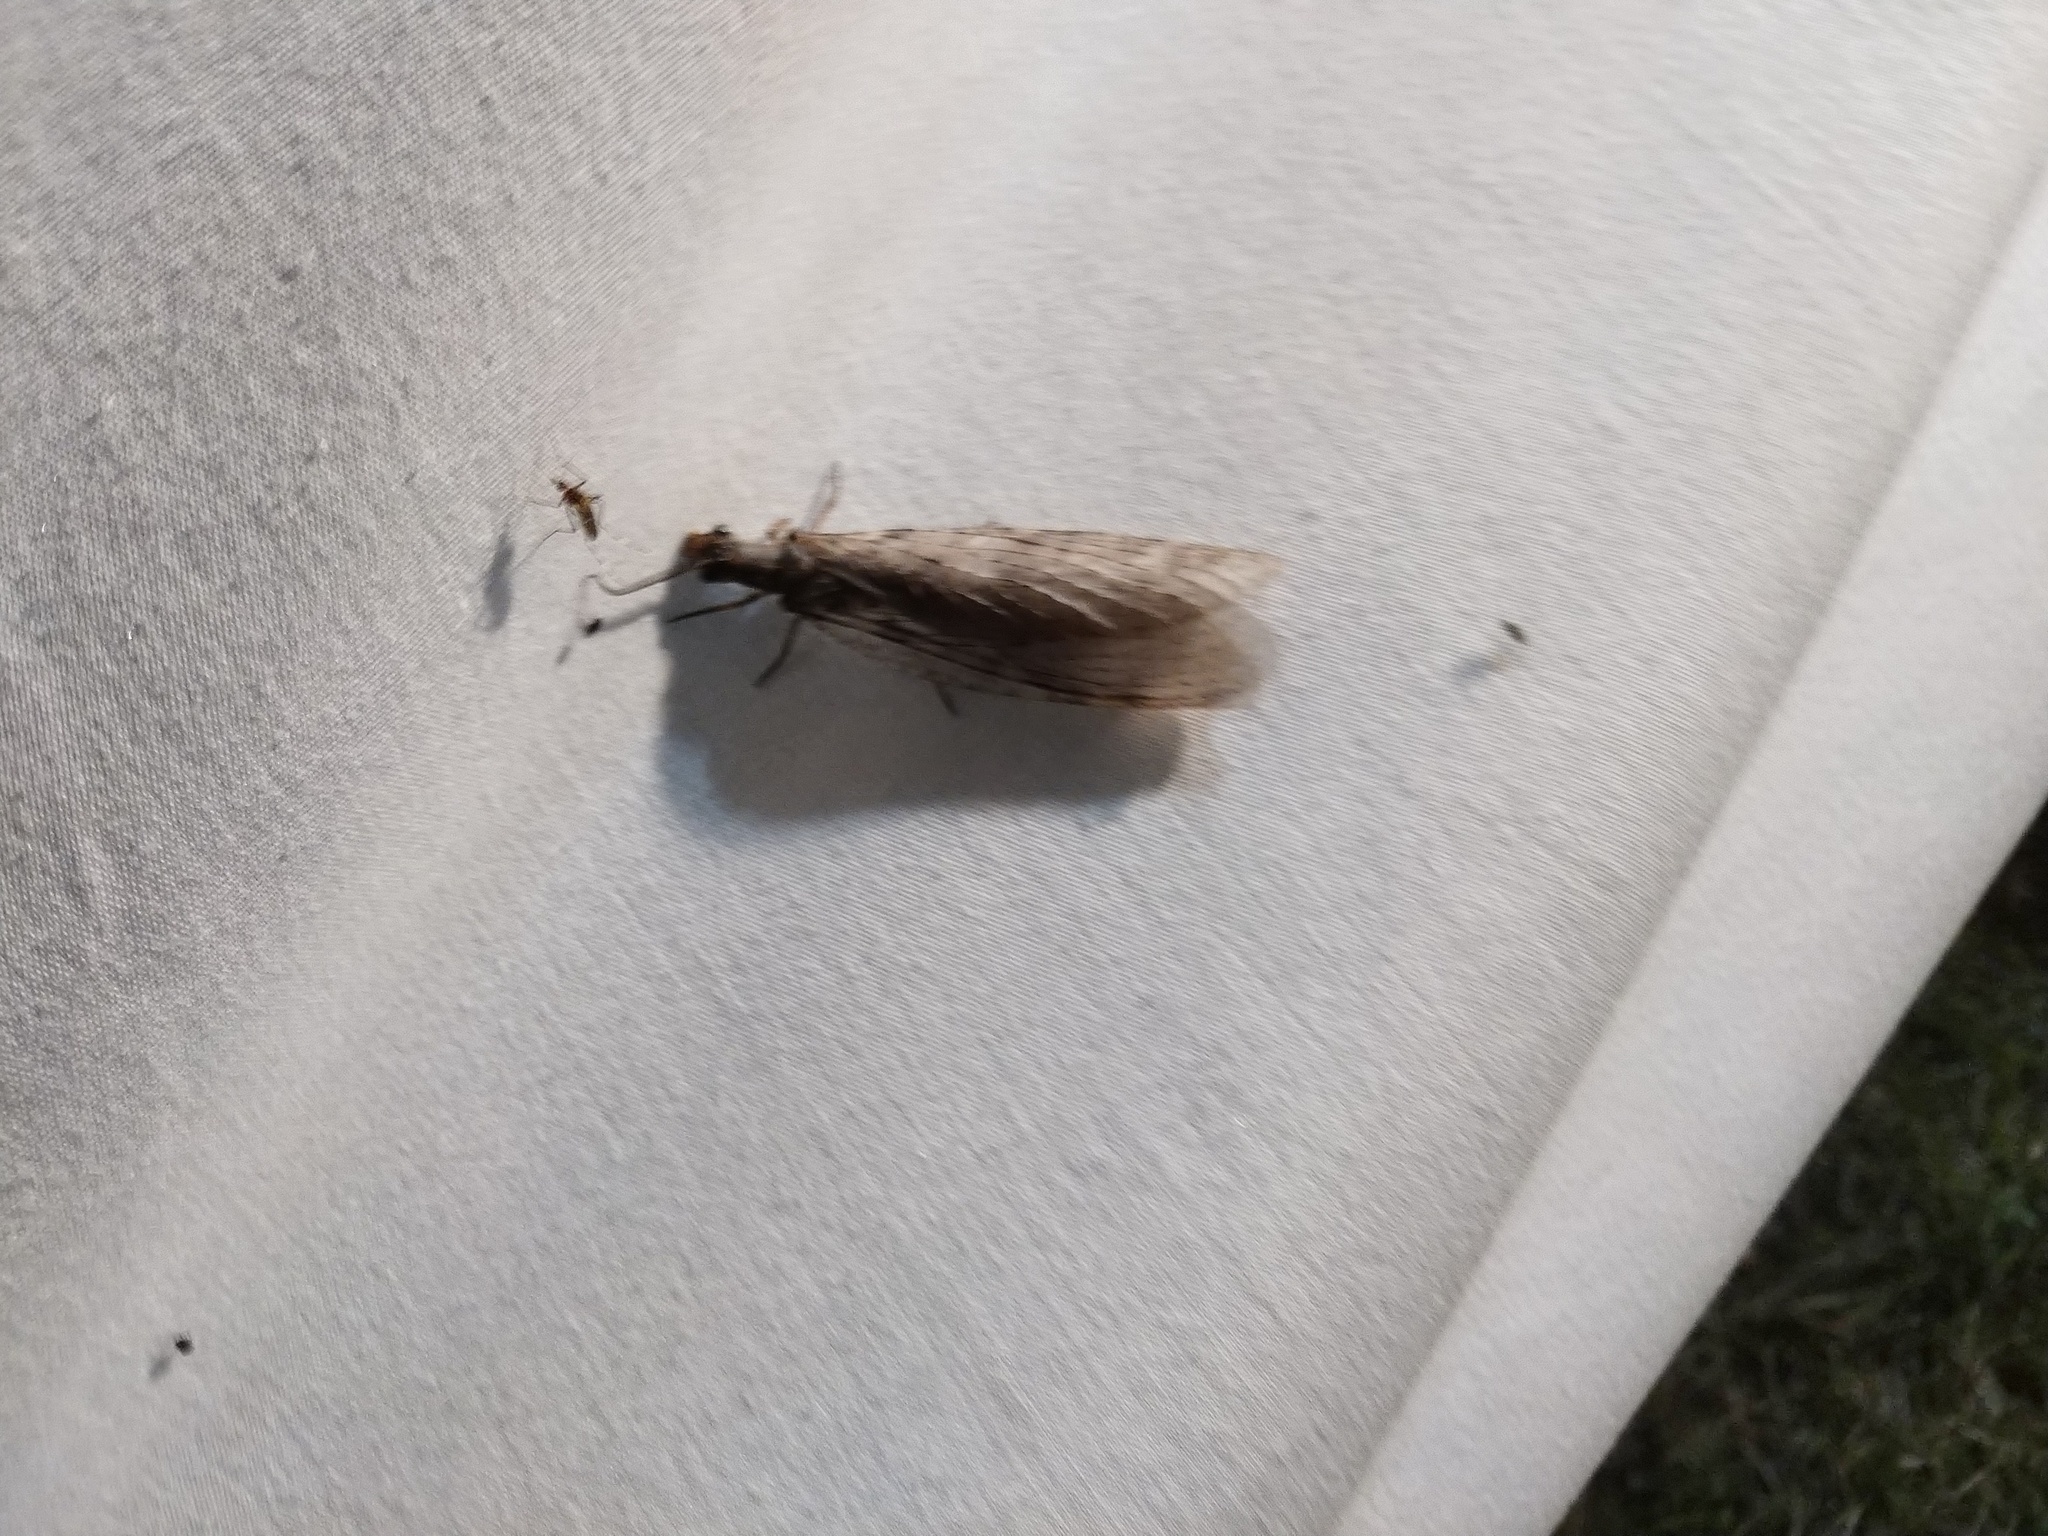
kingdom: Animalia
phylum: Arthropoda
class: Insecta
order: Megaloptera
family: Corydalidae
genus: Chauliodes
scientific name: Chauliodes pectinicornis
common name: Summer fishfly
